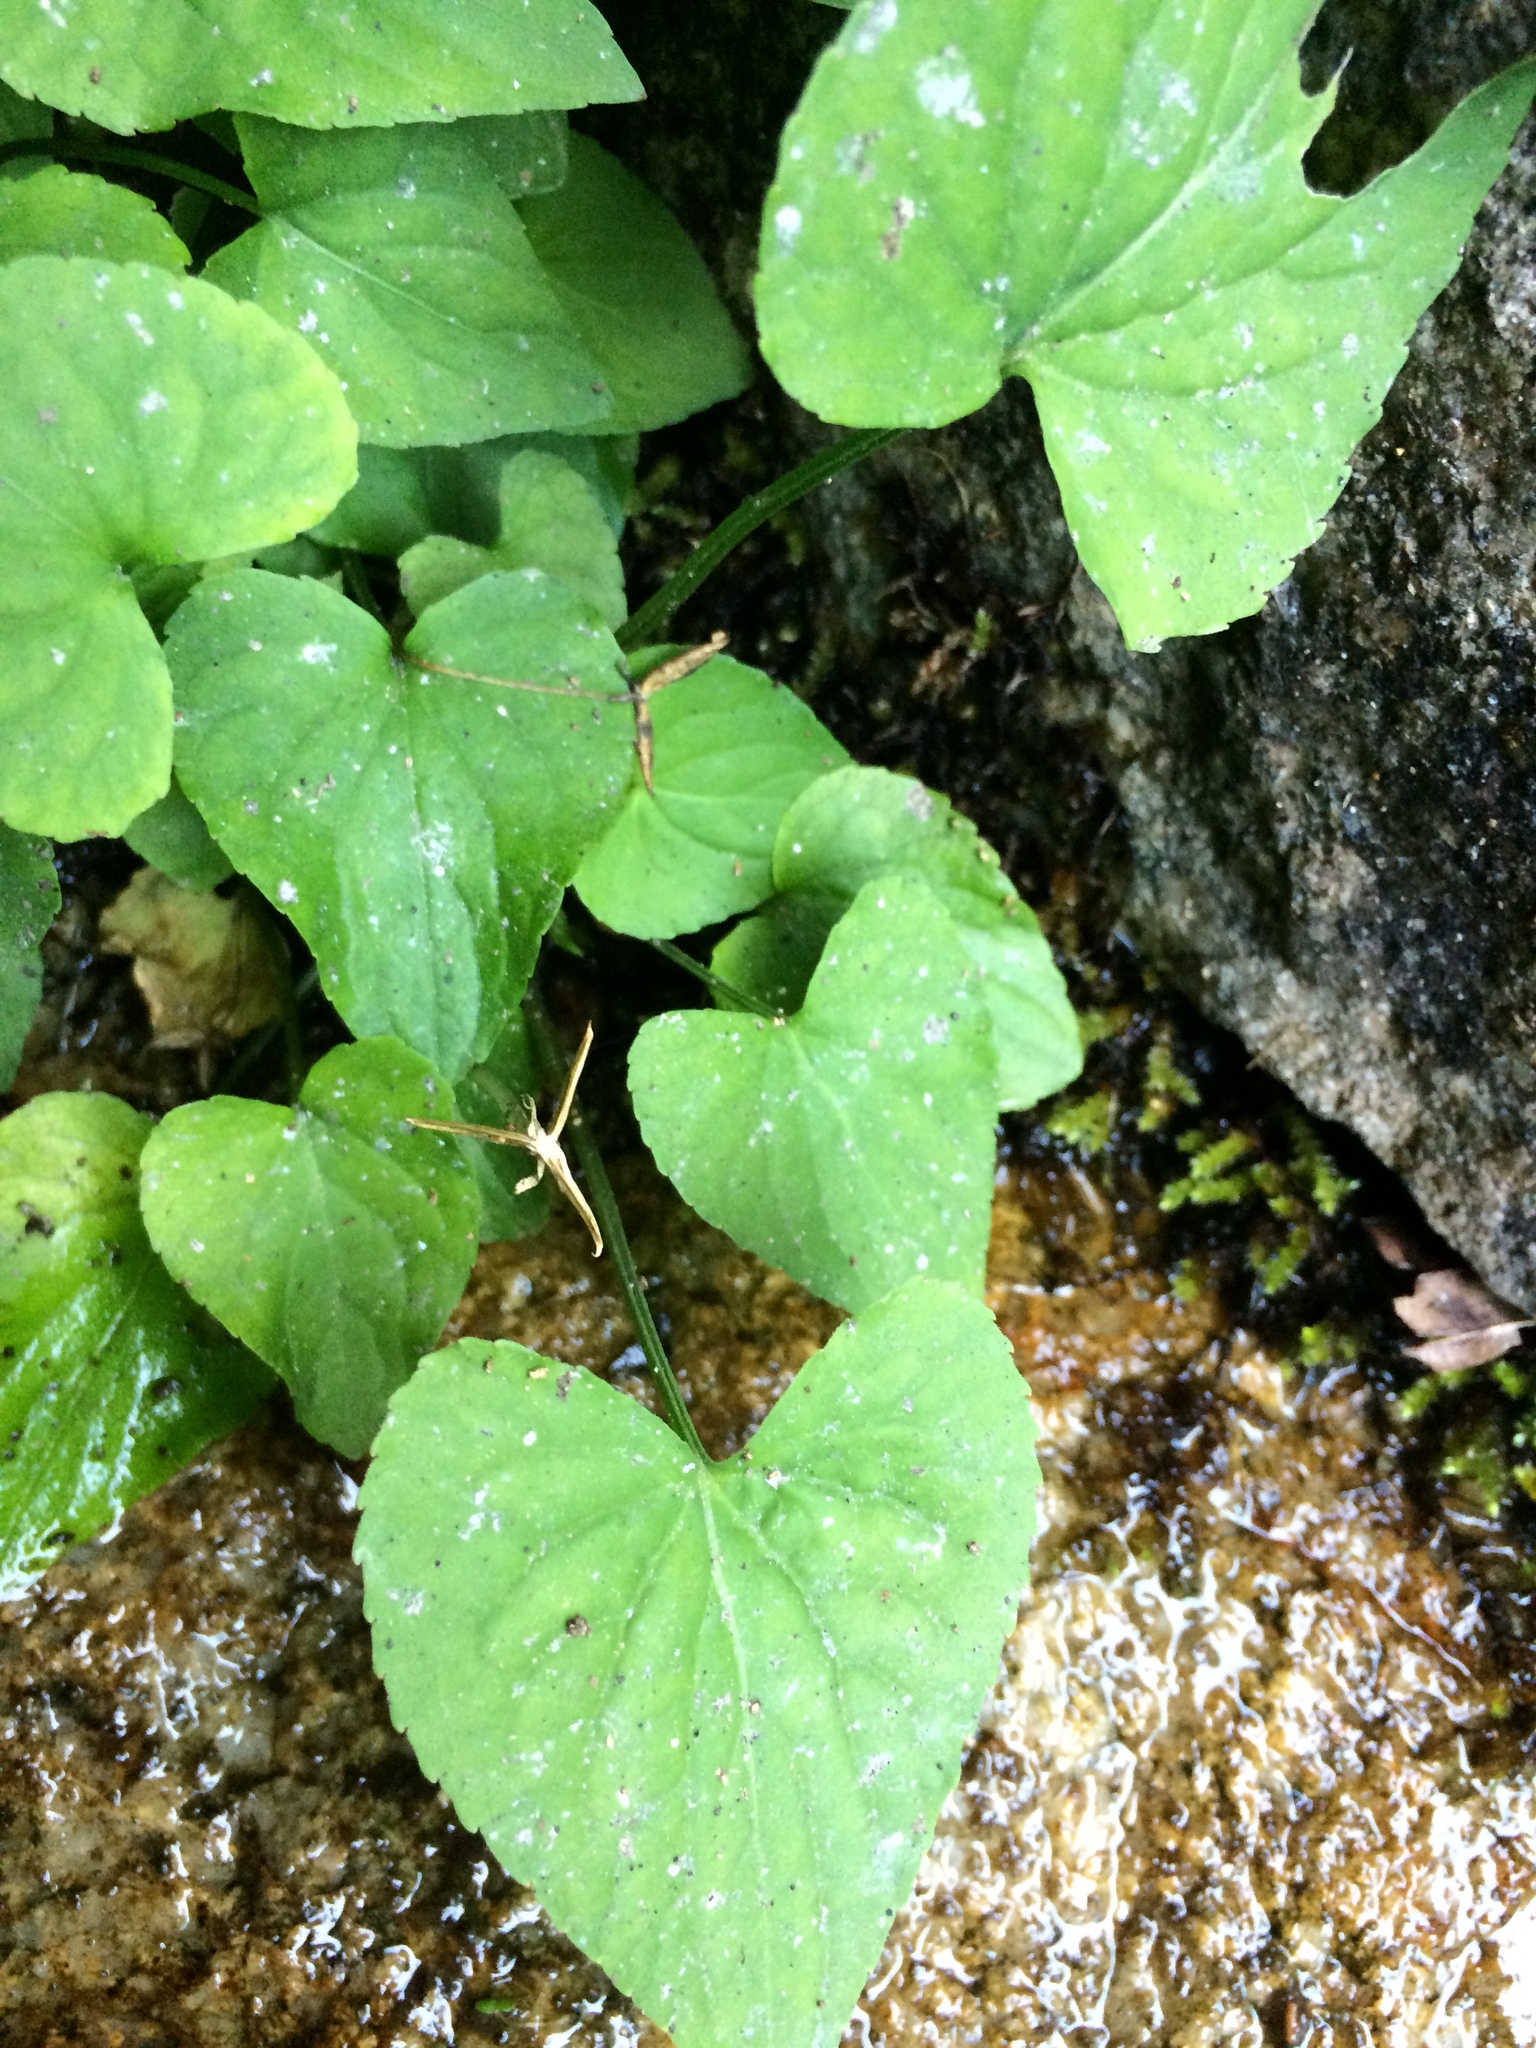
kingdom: Plantae
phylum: Tracheophyta
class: Magnoliopsida
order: Malpighiales
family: Violaceae
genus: Viola
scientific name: Viola cucullata
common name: Marsh blue violet
